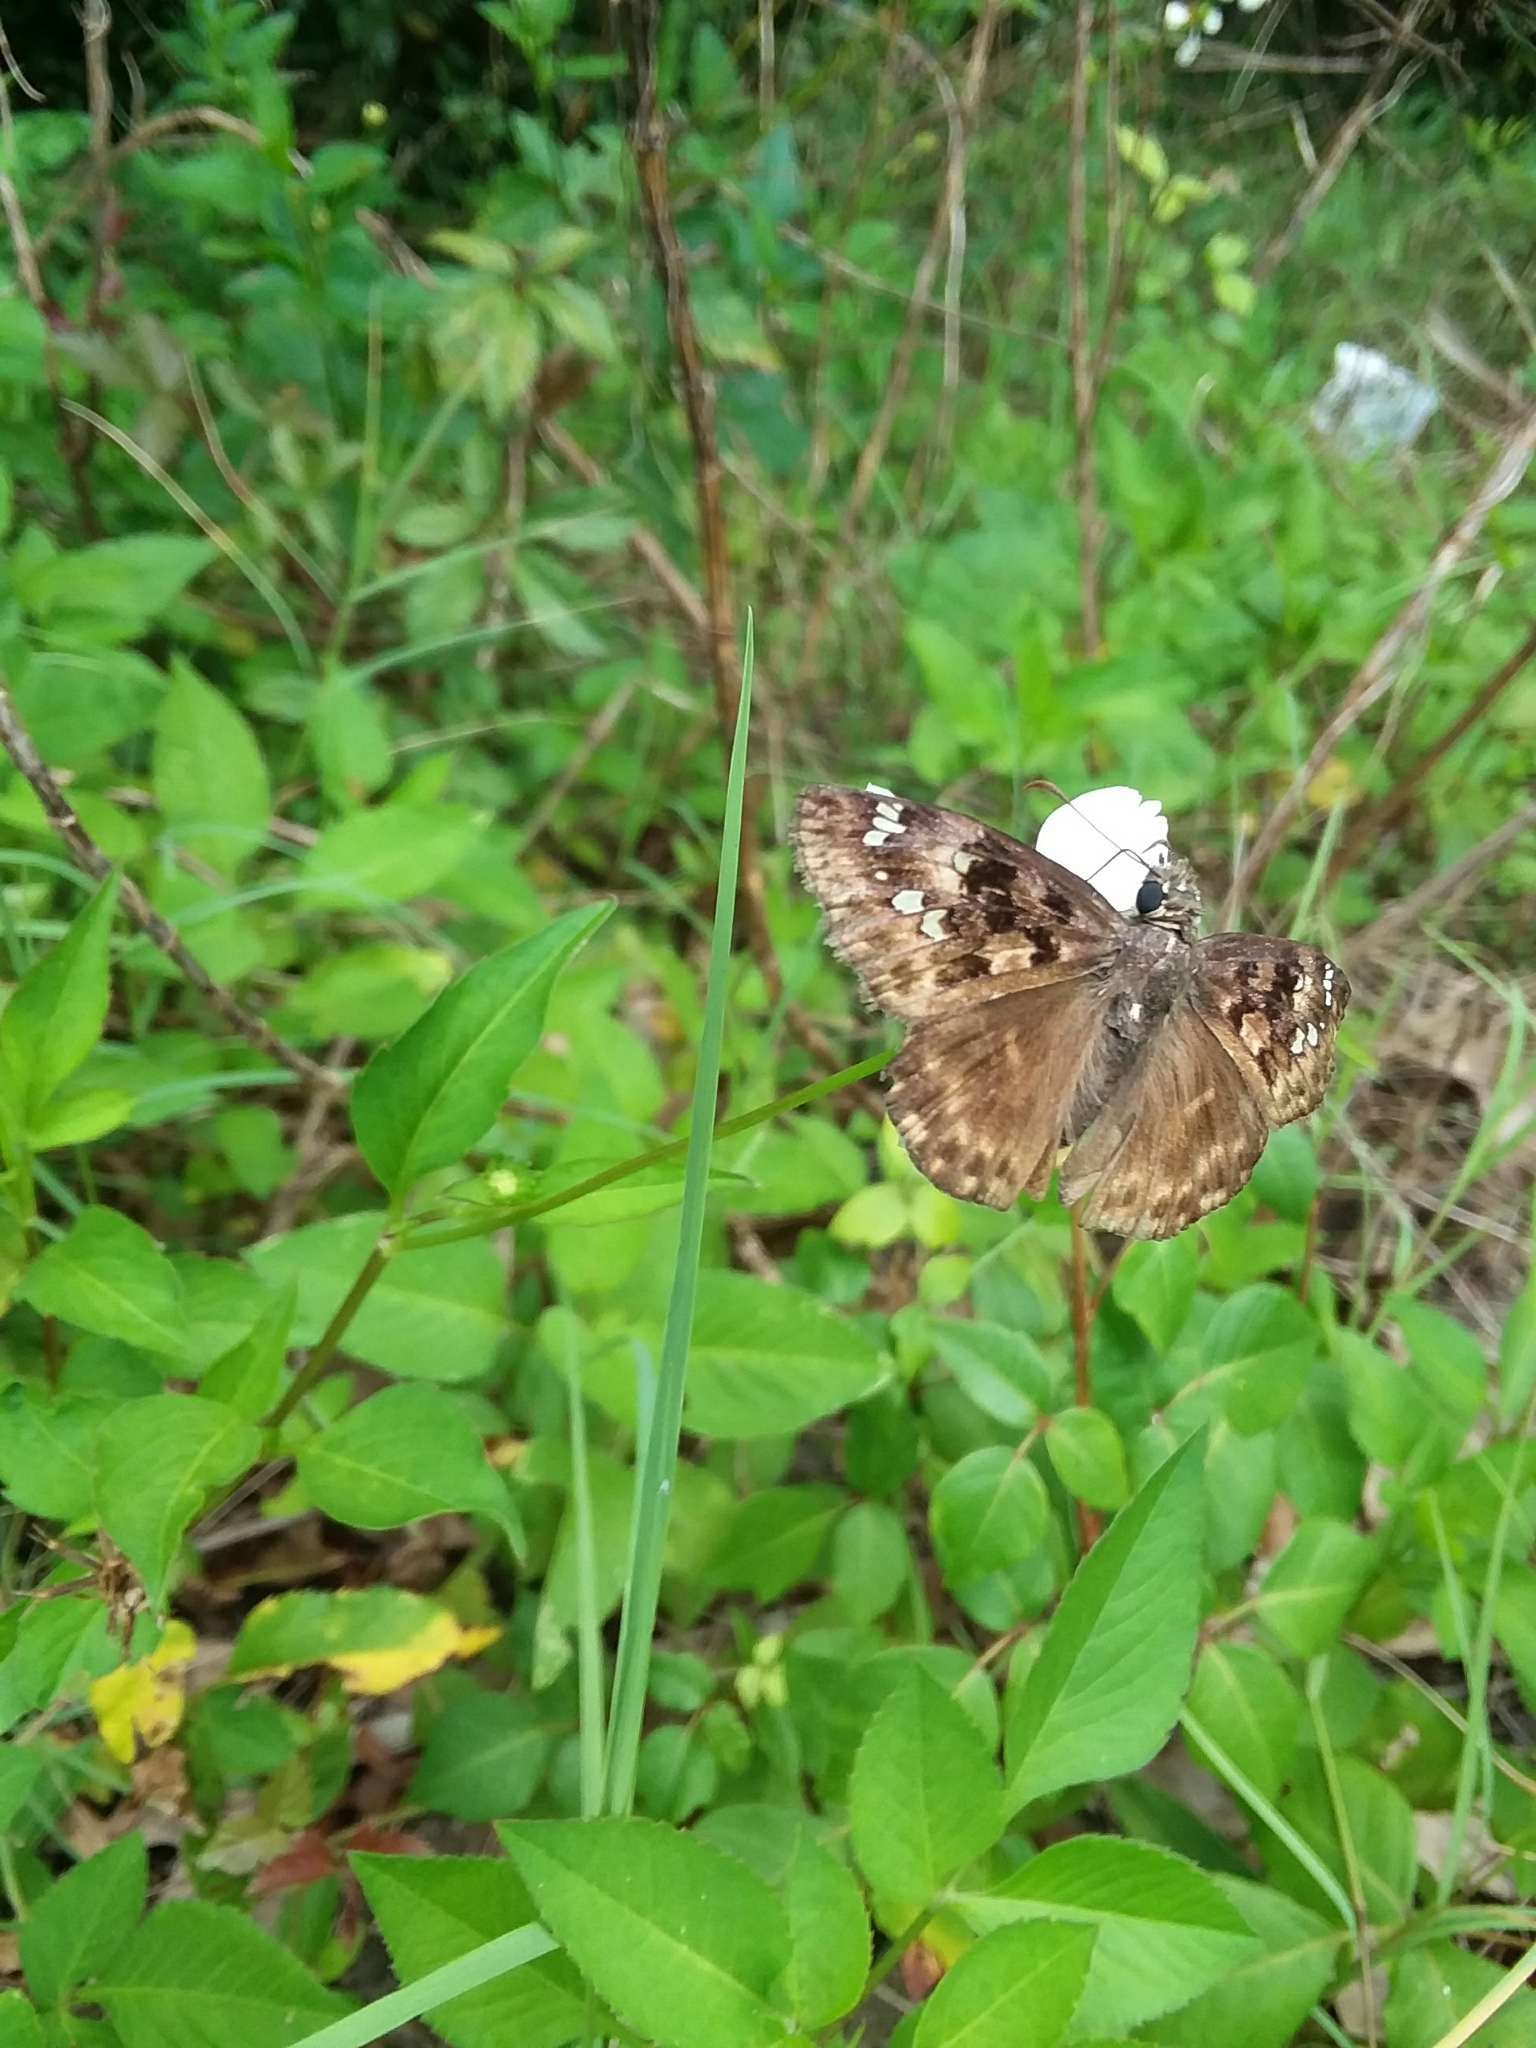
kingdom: Animalia
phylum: Arthropoda
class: Insecta
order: Lepidoptera
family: Hesperiidae
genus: Erynnis
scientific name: Erynnis horatius
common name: Horace's duskywing
